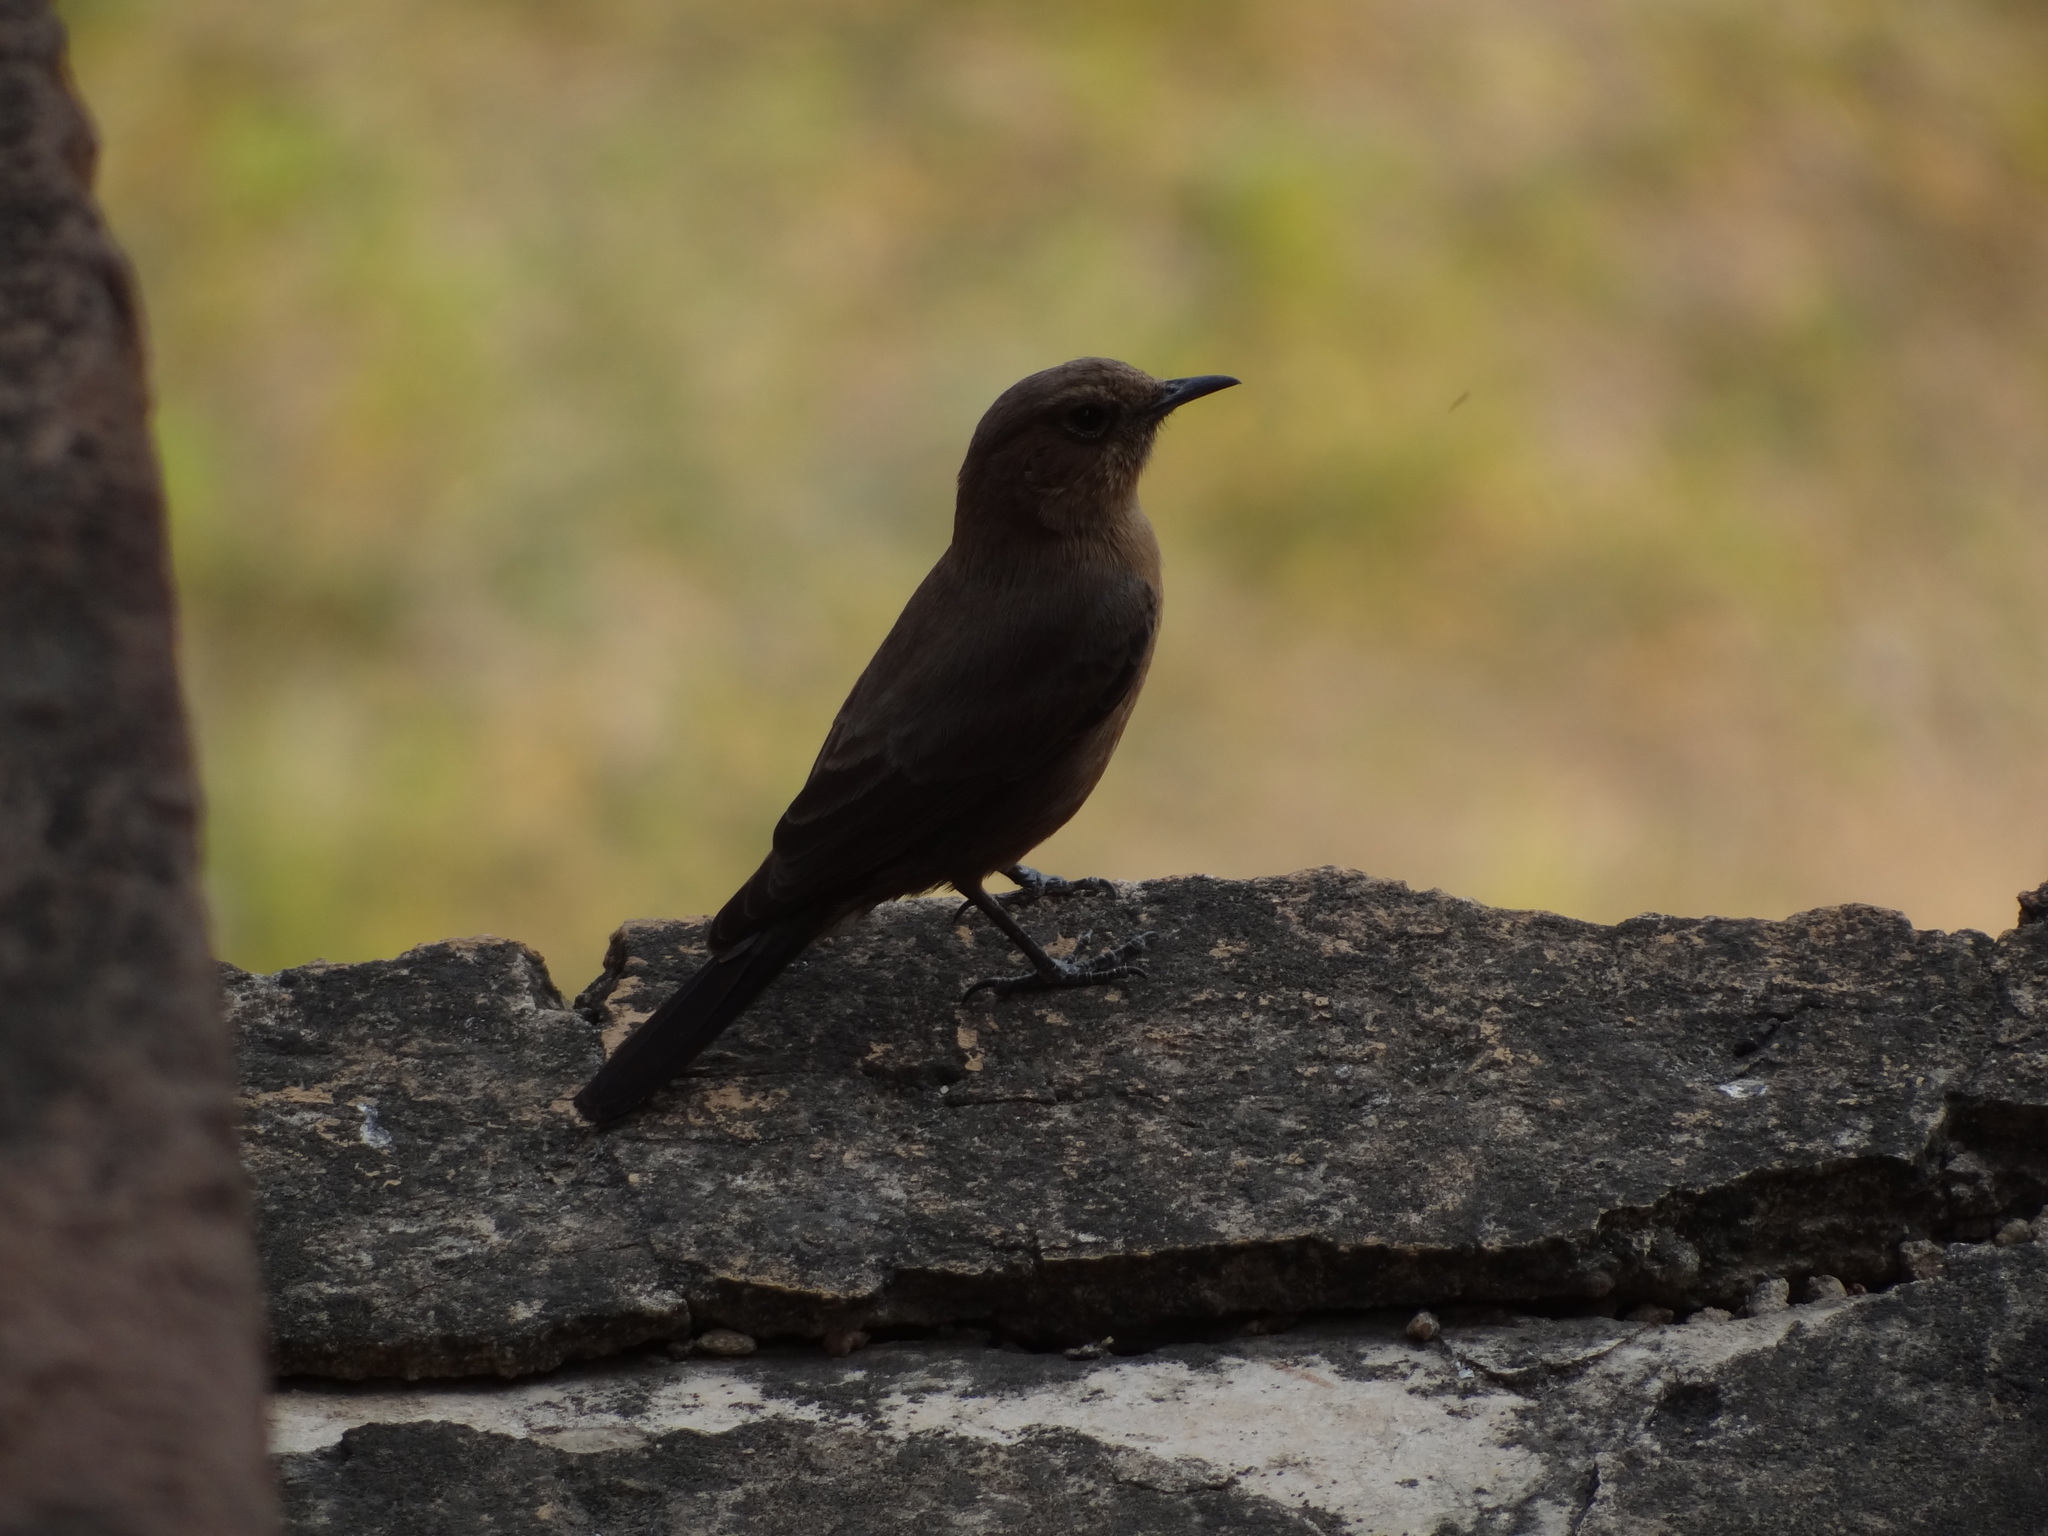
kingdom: Animalia
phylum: Chordata
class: Aves
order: Passeriformes
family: Muscicapidae
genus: Oenanthe
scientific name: Oenanthe fusca
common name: Brown rock chat
